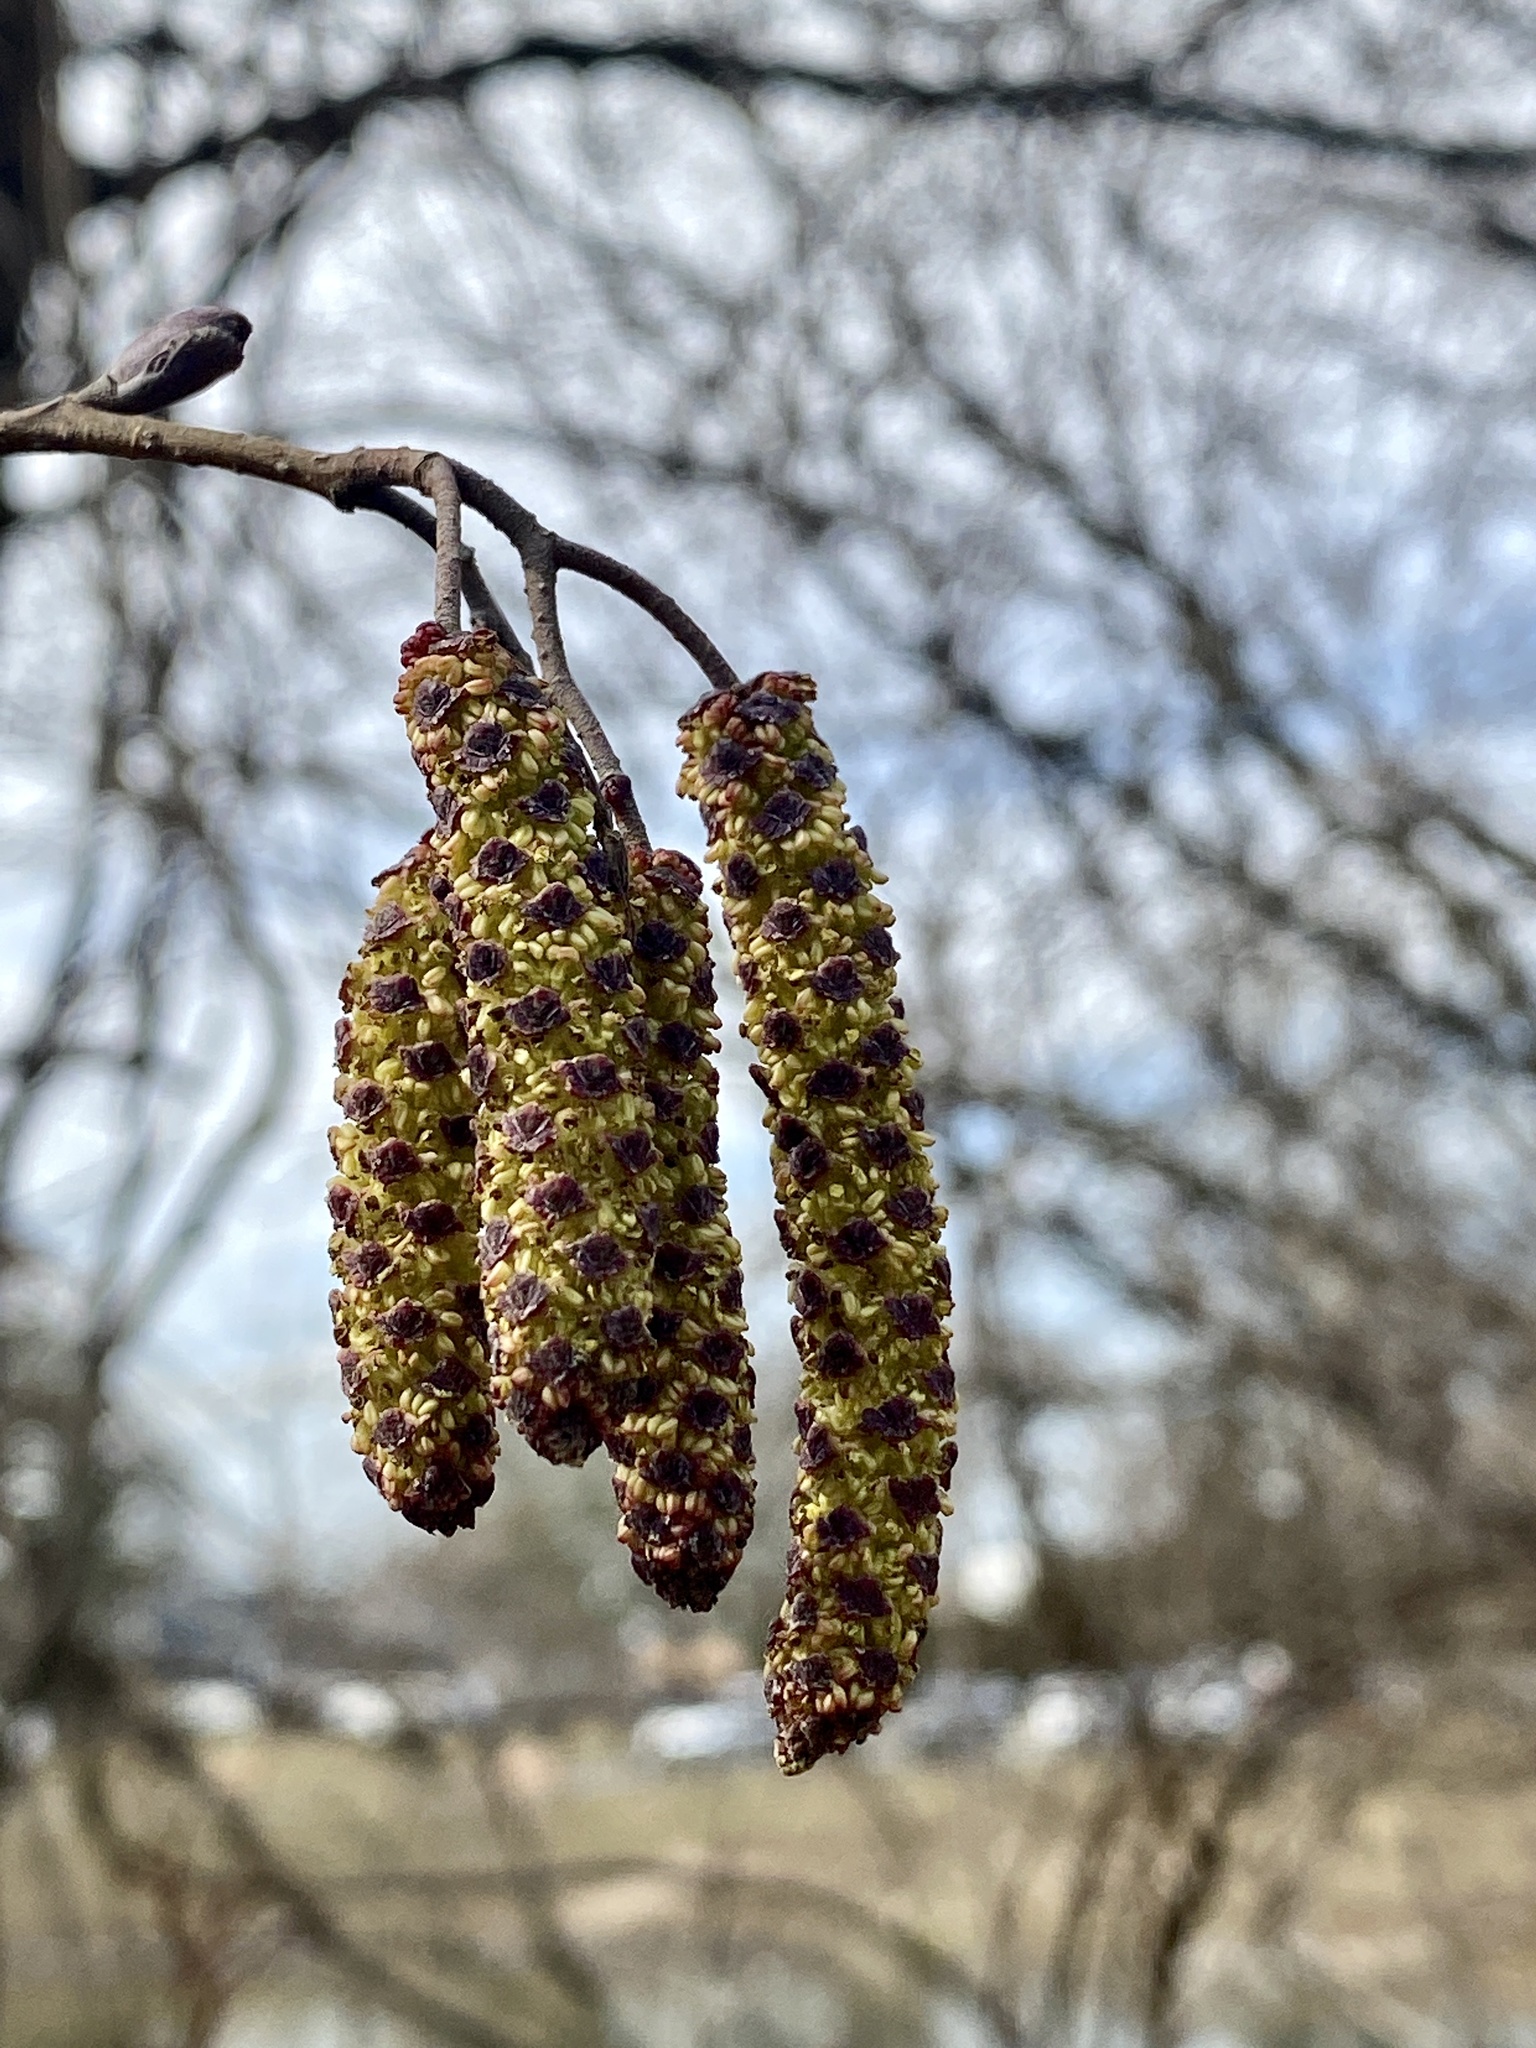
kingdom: Plantae
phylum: Tracheophyta
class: Magnoliopsida
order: Fagales
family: Betulaceae
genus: Alnus
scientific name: Alnus glutinosa
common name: Black alder
